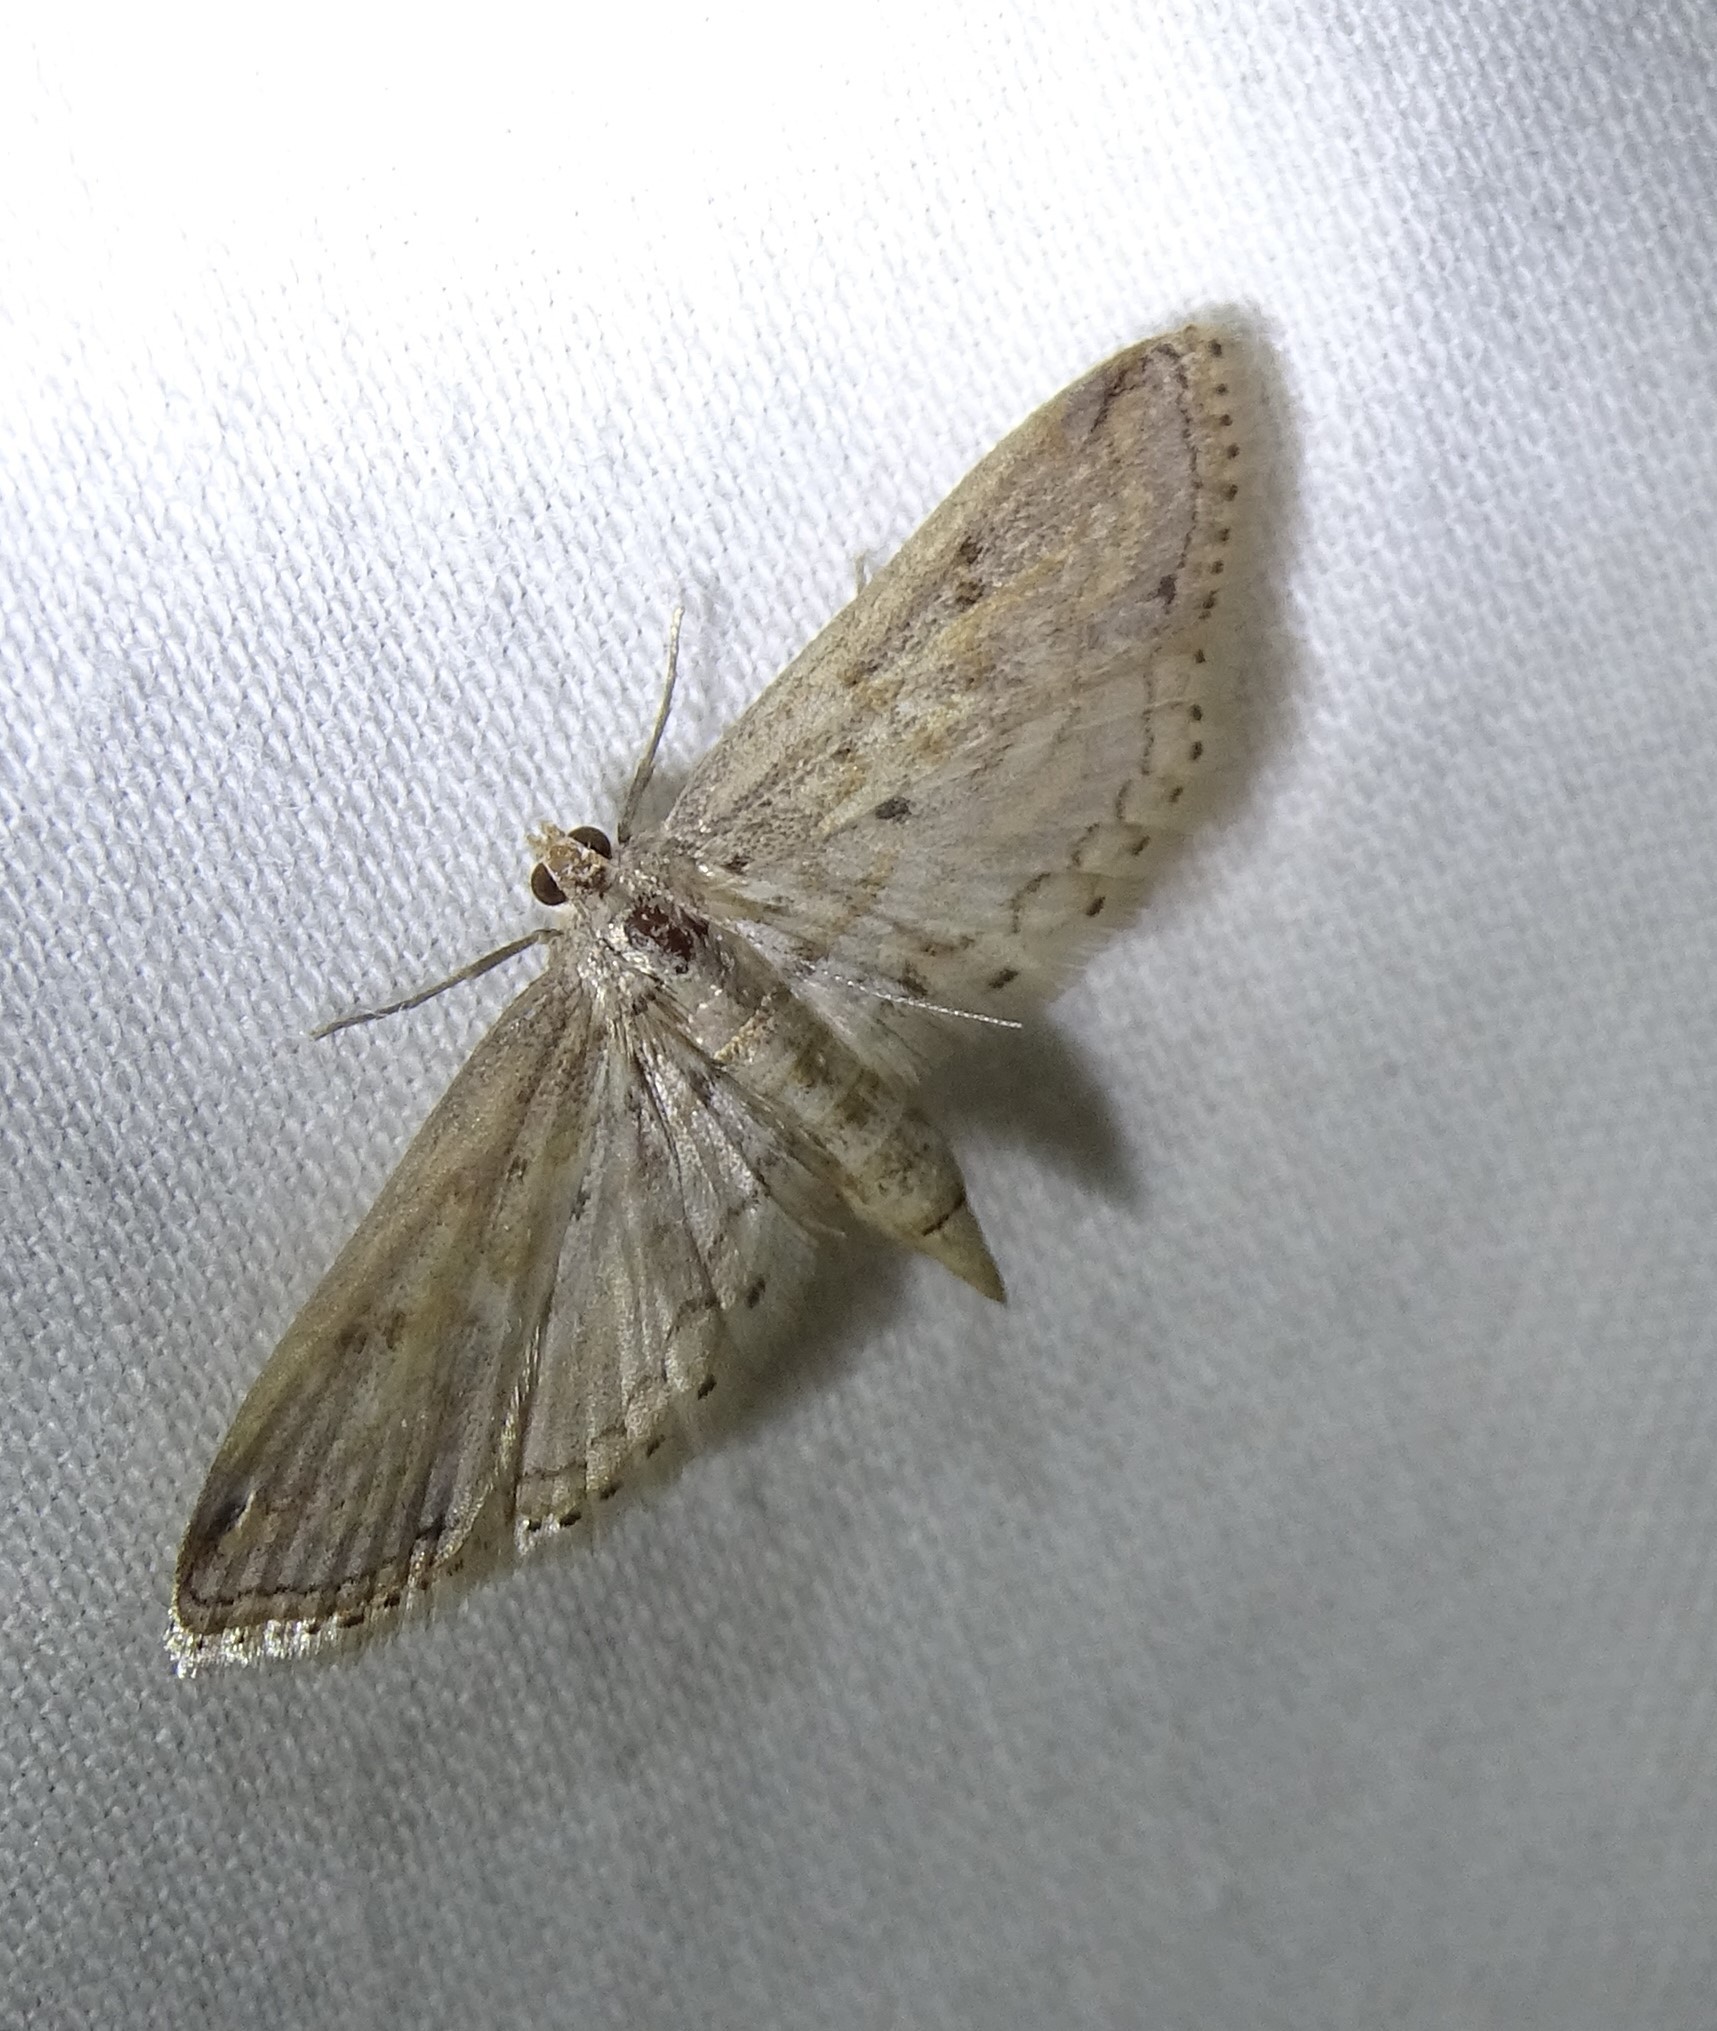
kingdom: Animalia
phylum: Arthropoda
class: Insecta
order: Lepidoptera
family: Crambidae
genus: Parapoynx
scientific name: Parapoynx allionealis
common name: Bladderwort casemaker
